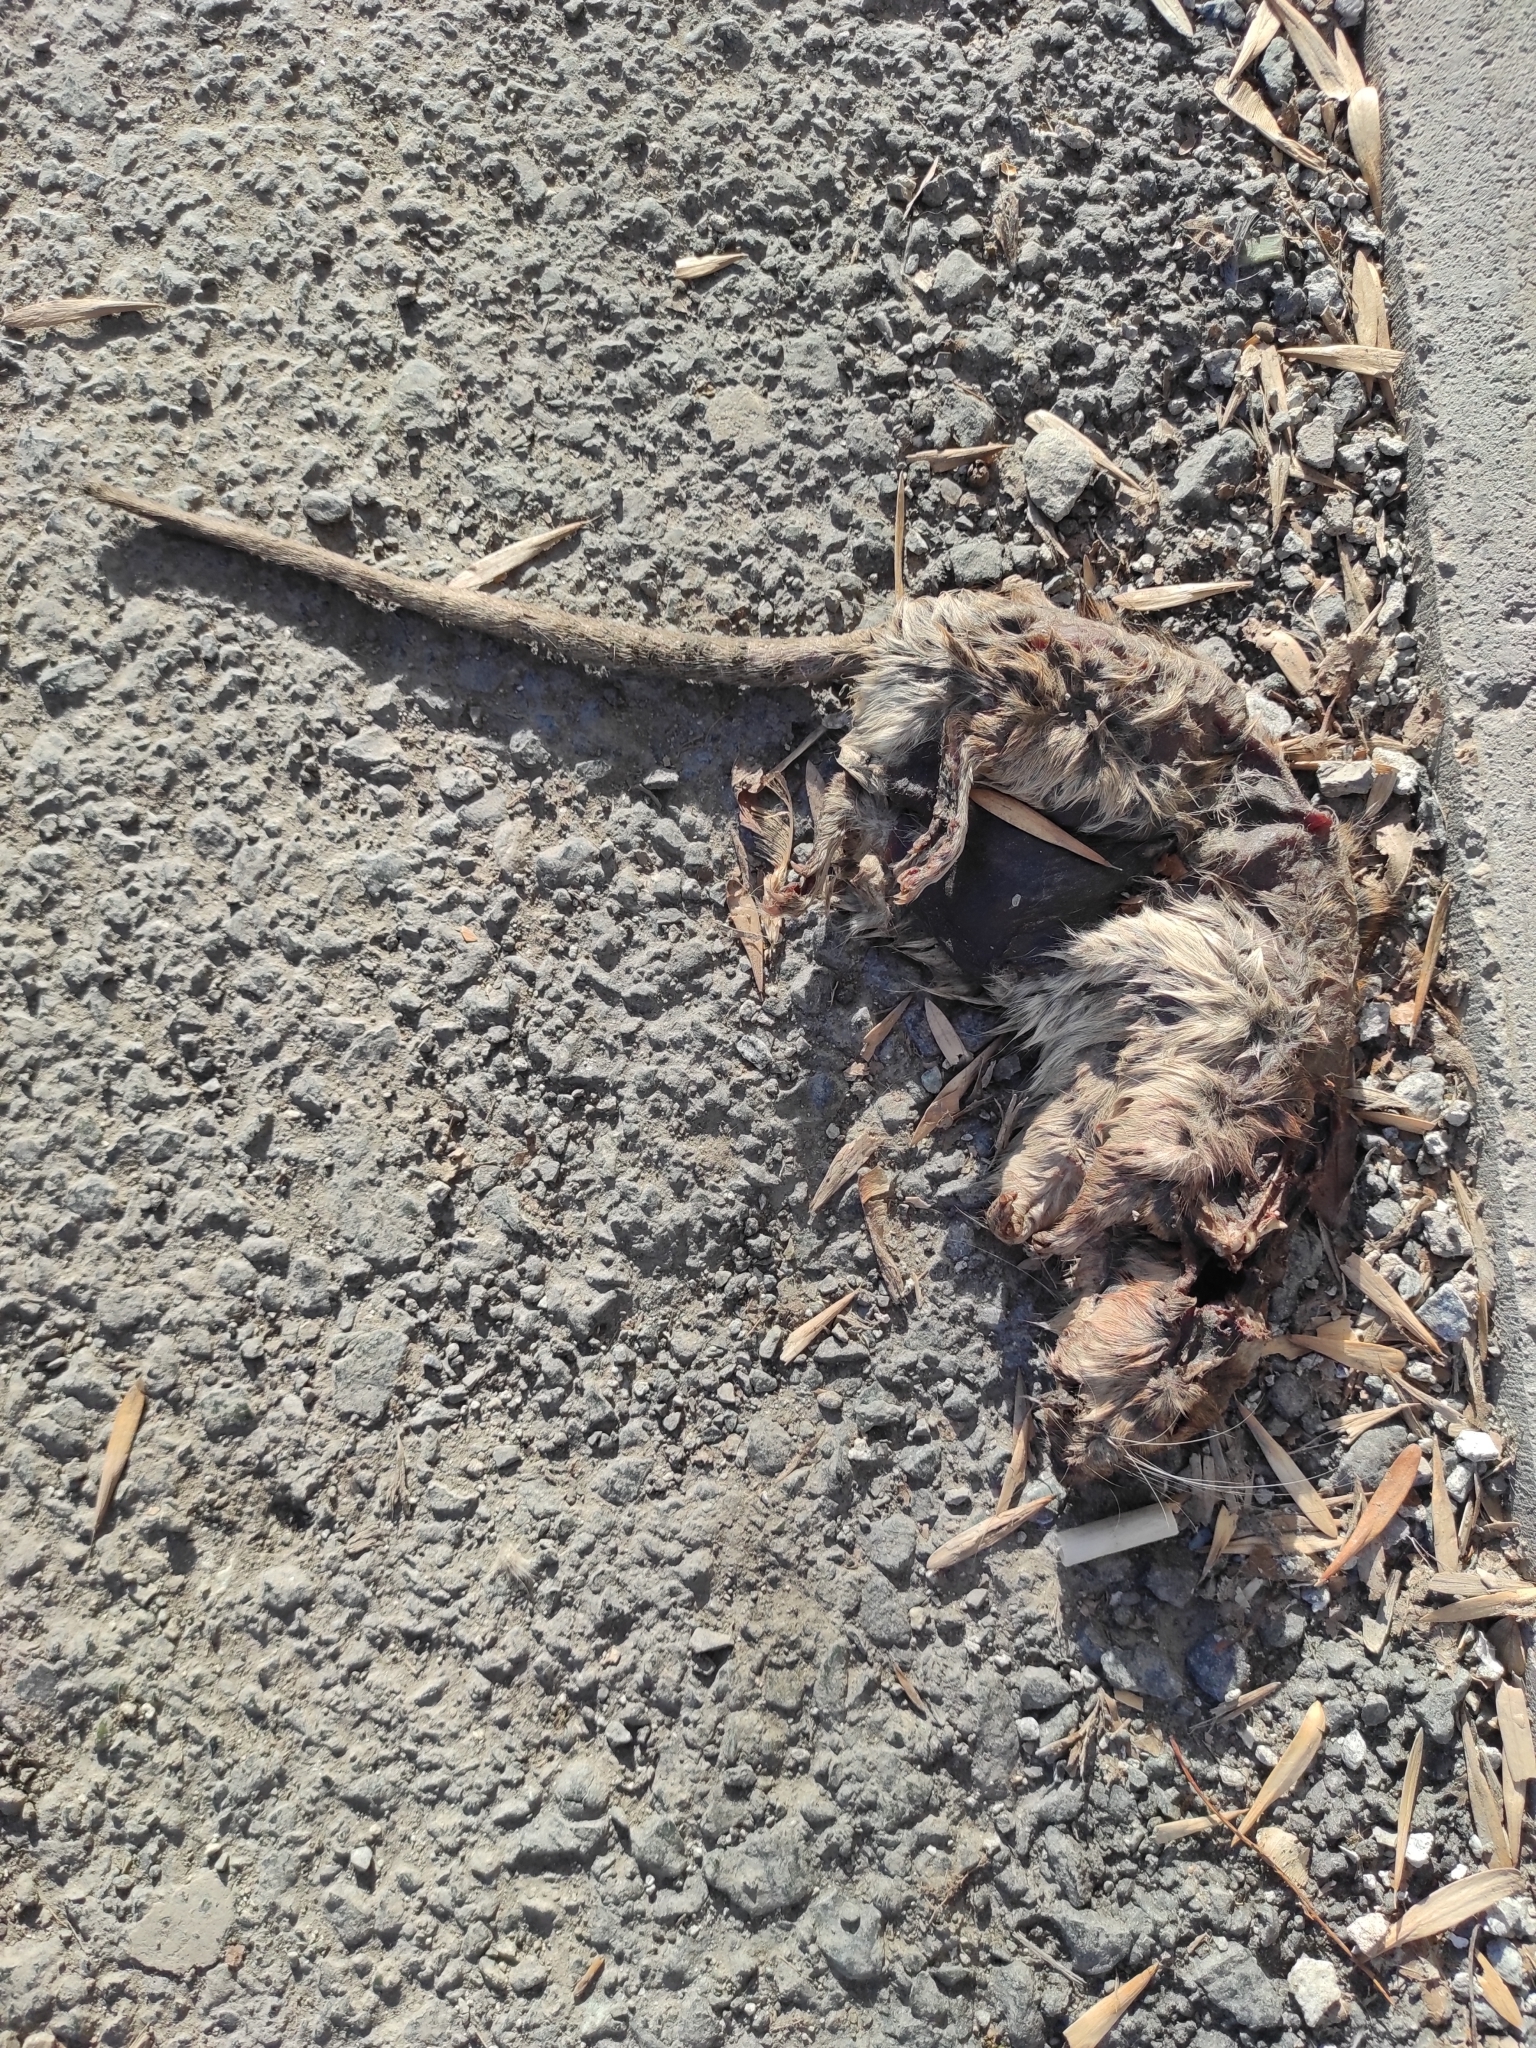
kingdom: Animalia
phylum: Chordata
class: Mammalia
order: Rodentia
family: Muridae
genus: Rattus
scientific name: Rattus norvegicus
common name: Brown rat
